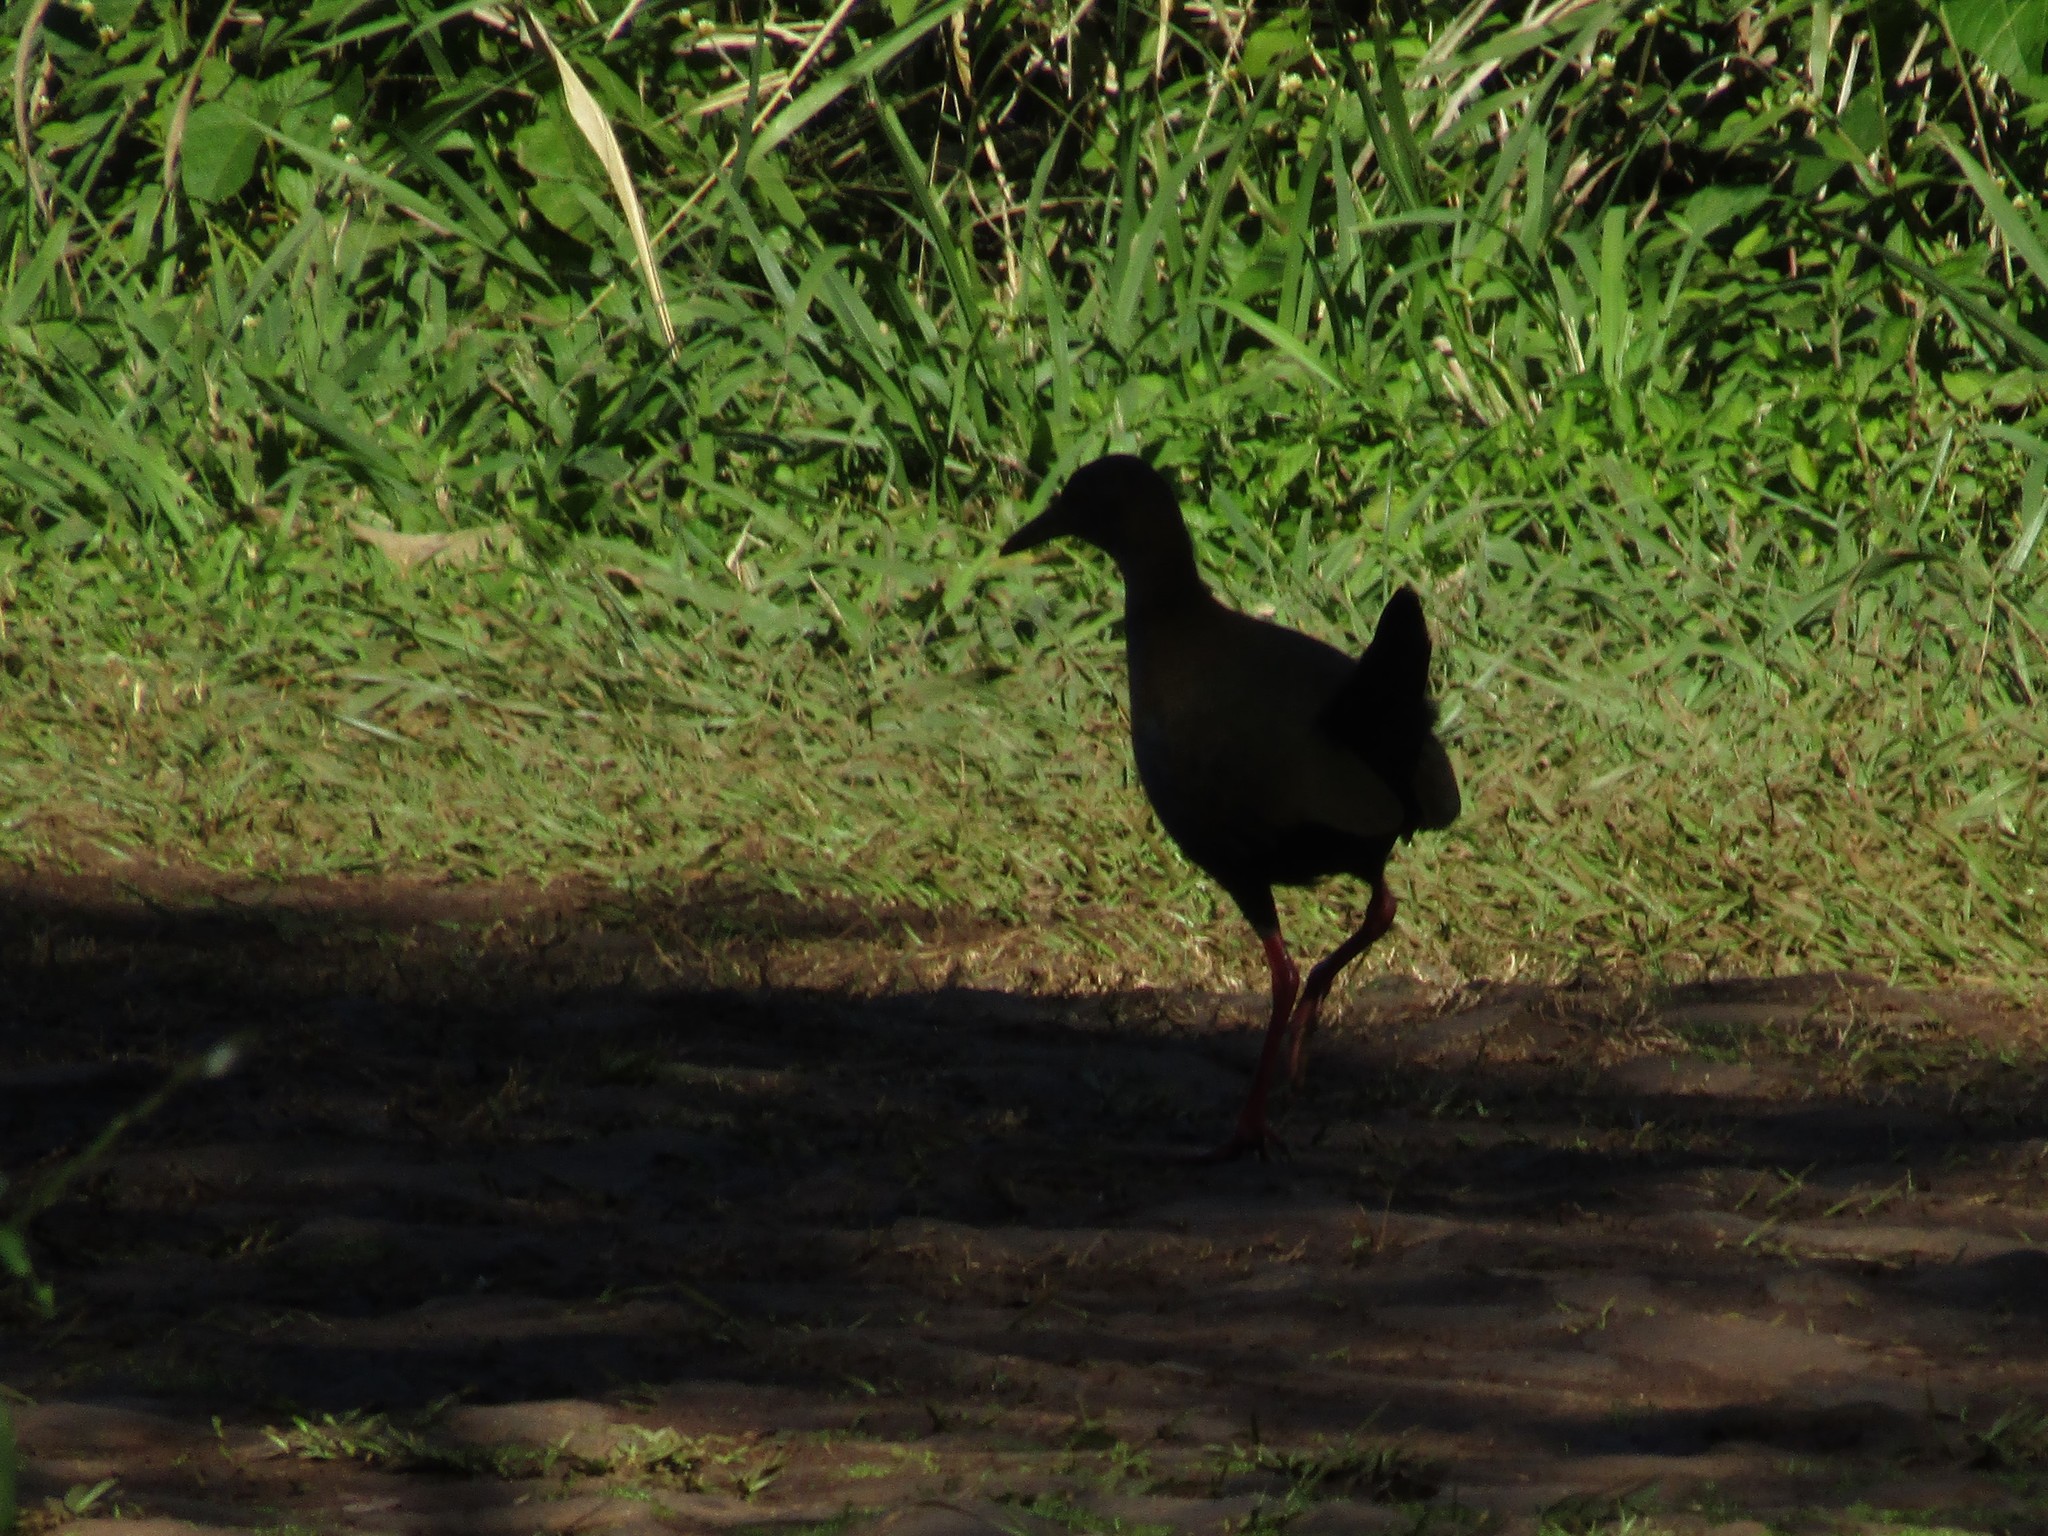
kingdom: Animalia
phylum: Chordata
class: Aves
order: Gruiformes
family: Rallidae
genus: Aramides
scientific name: Aramides saracura
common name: Slaty-breasted wood rail
